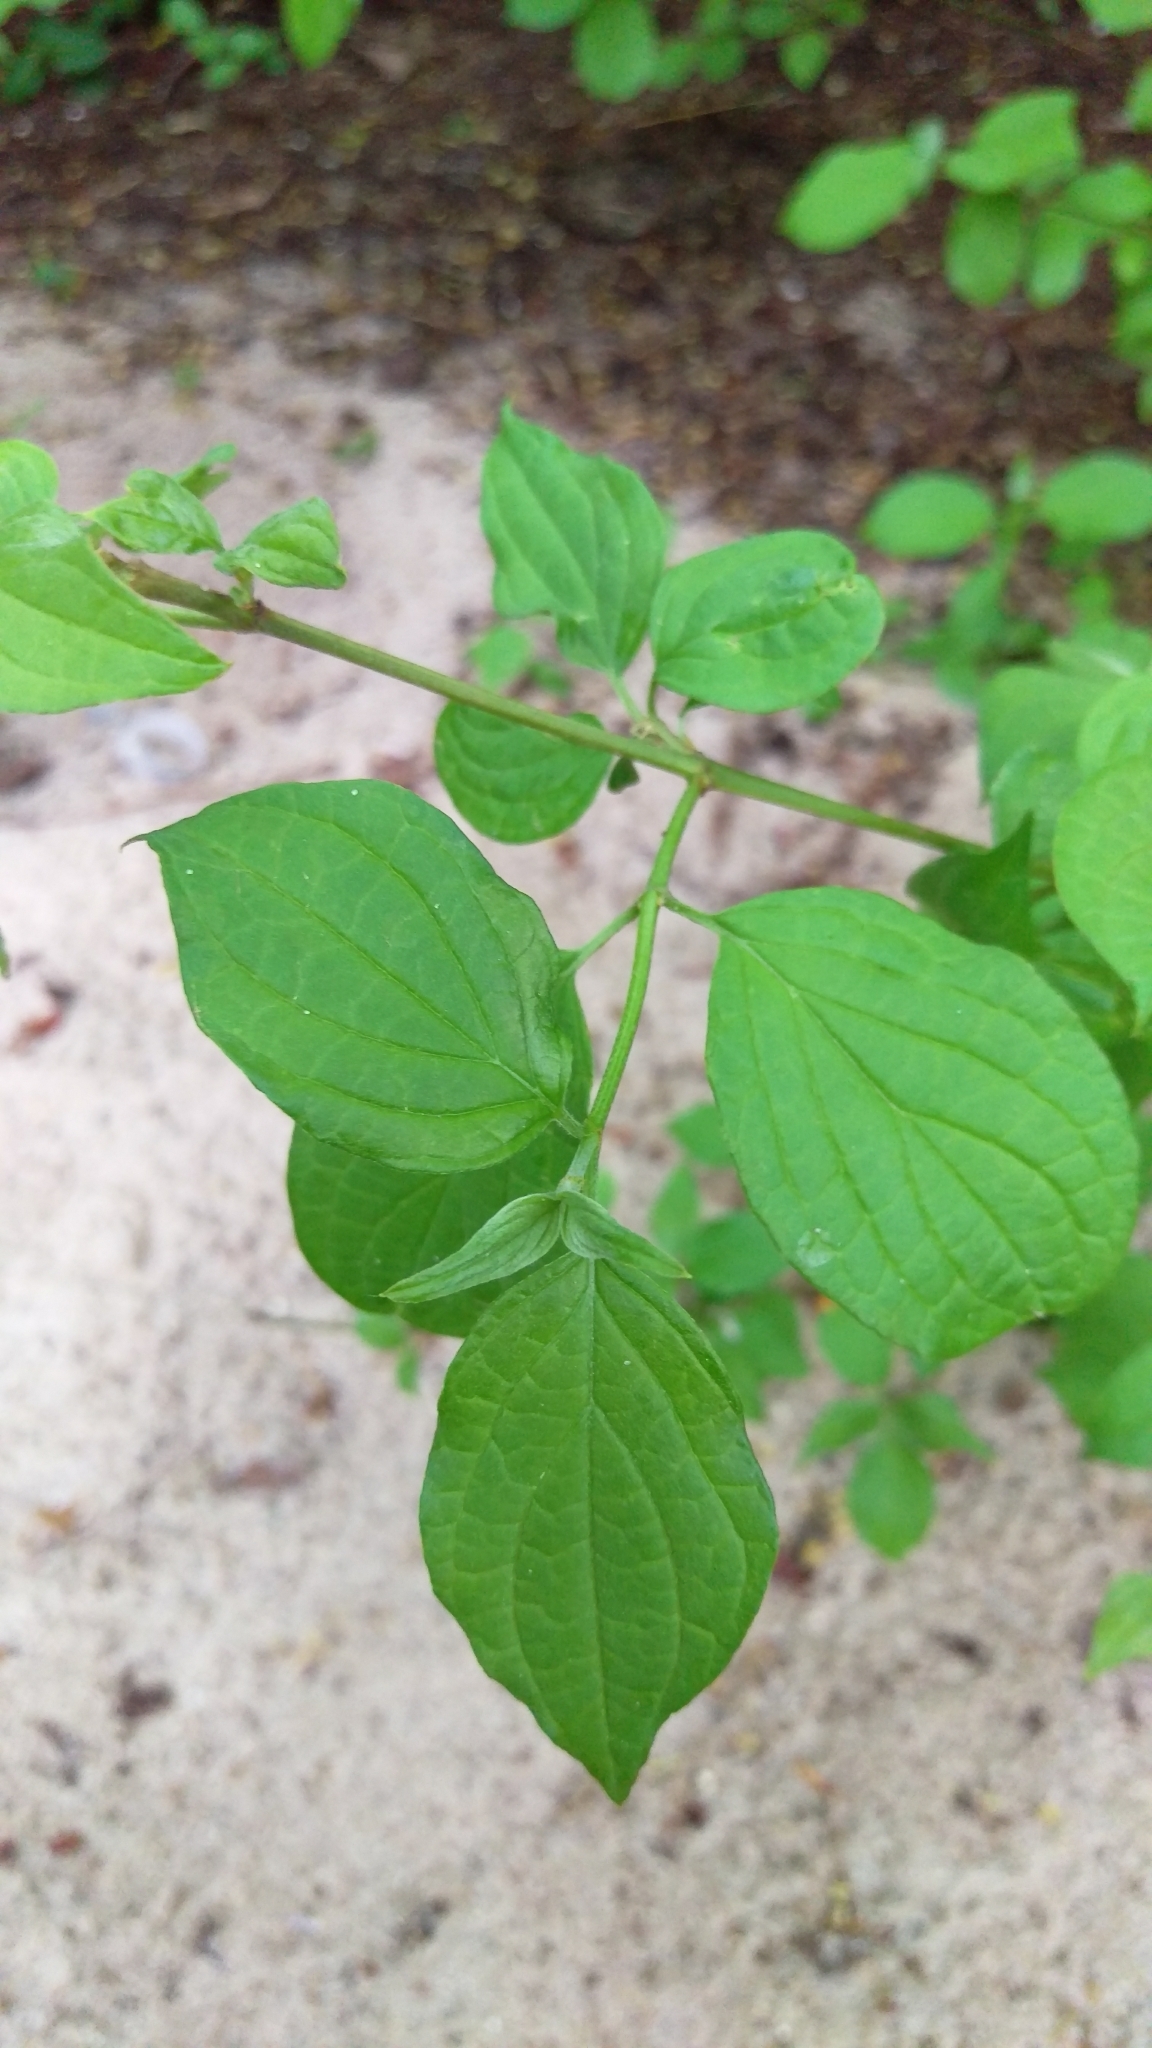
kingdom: Plantae
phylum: Tracheophyta
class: Magnoliopsida
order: Cornales
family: Cornaceae
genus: Cornus
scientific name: Cornus sanguinea
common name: Dogwood
